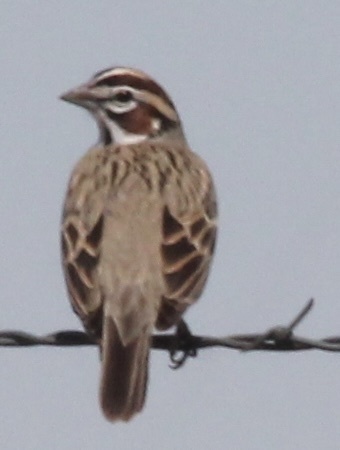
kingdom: Animalia
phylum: Chordata
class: Aves
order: Passeriformes
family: Passerellidae
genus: Chondestes
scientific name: Chondestes grammacus
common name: Lark sparrow
